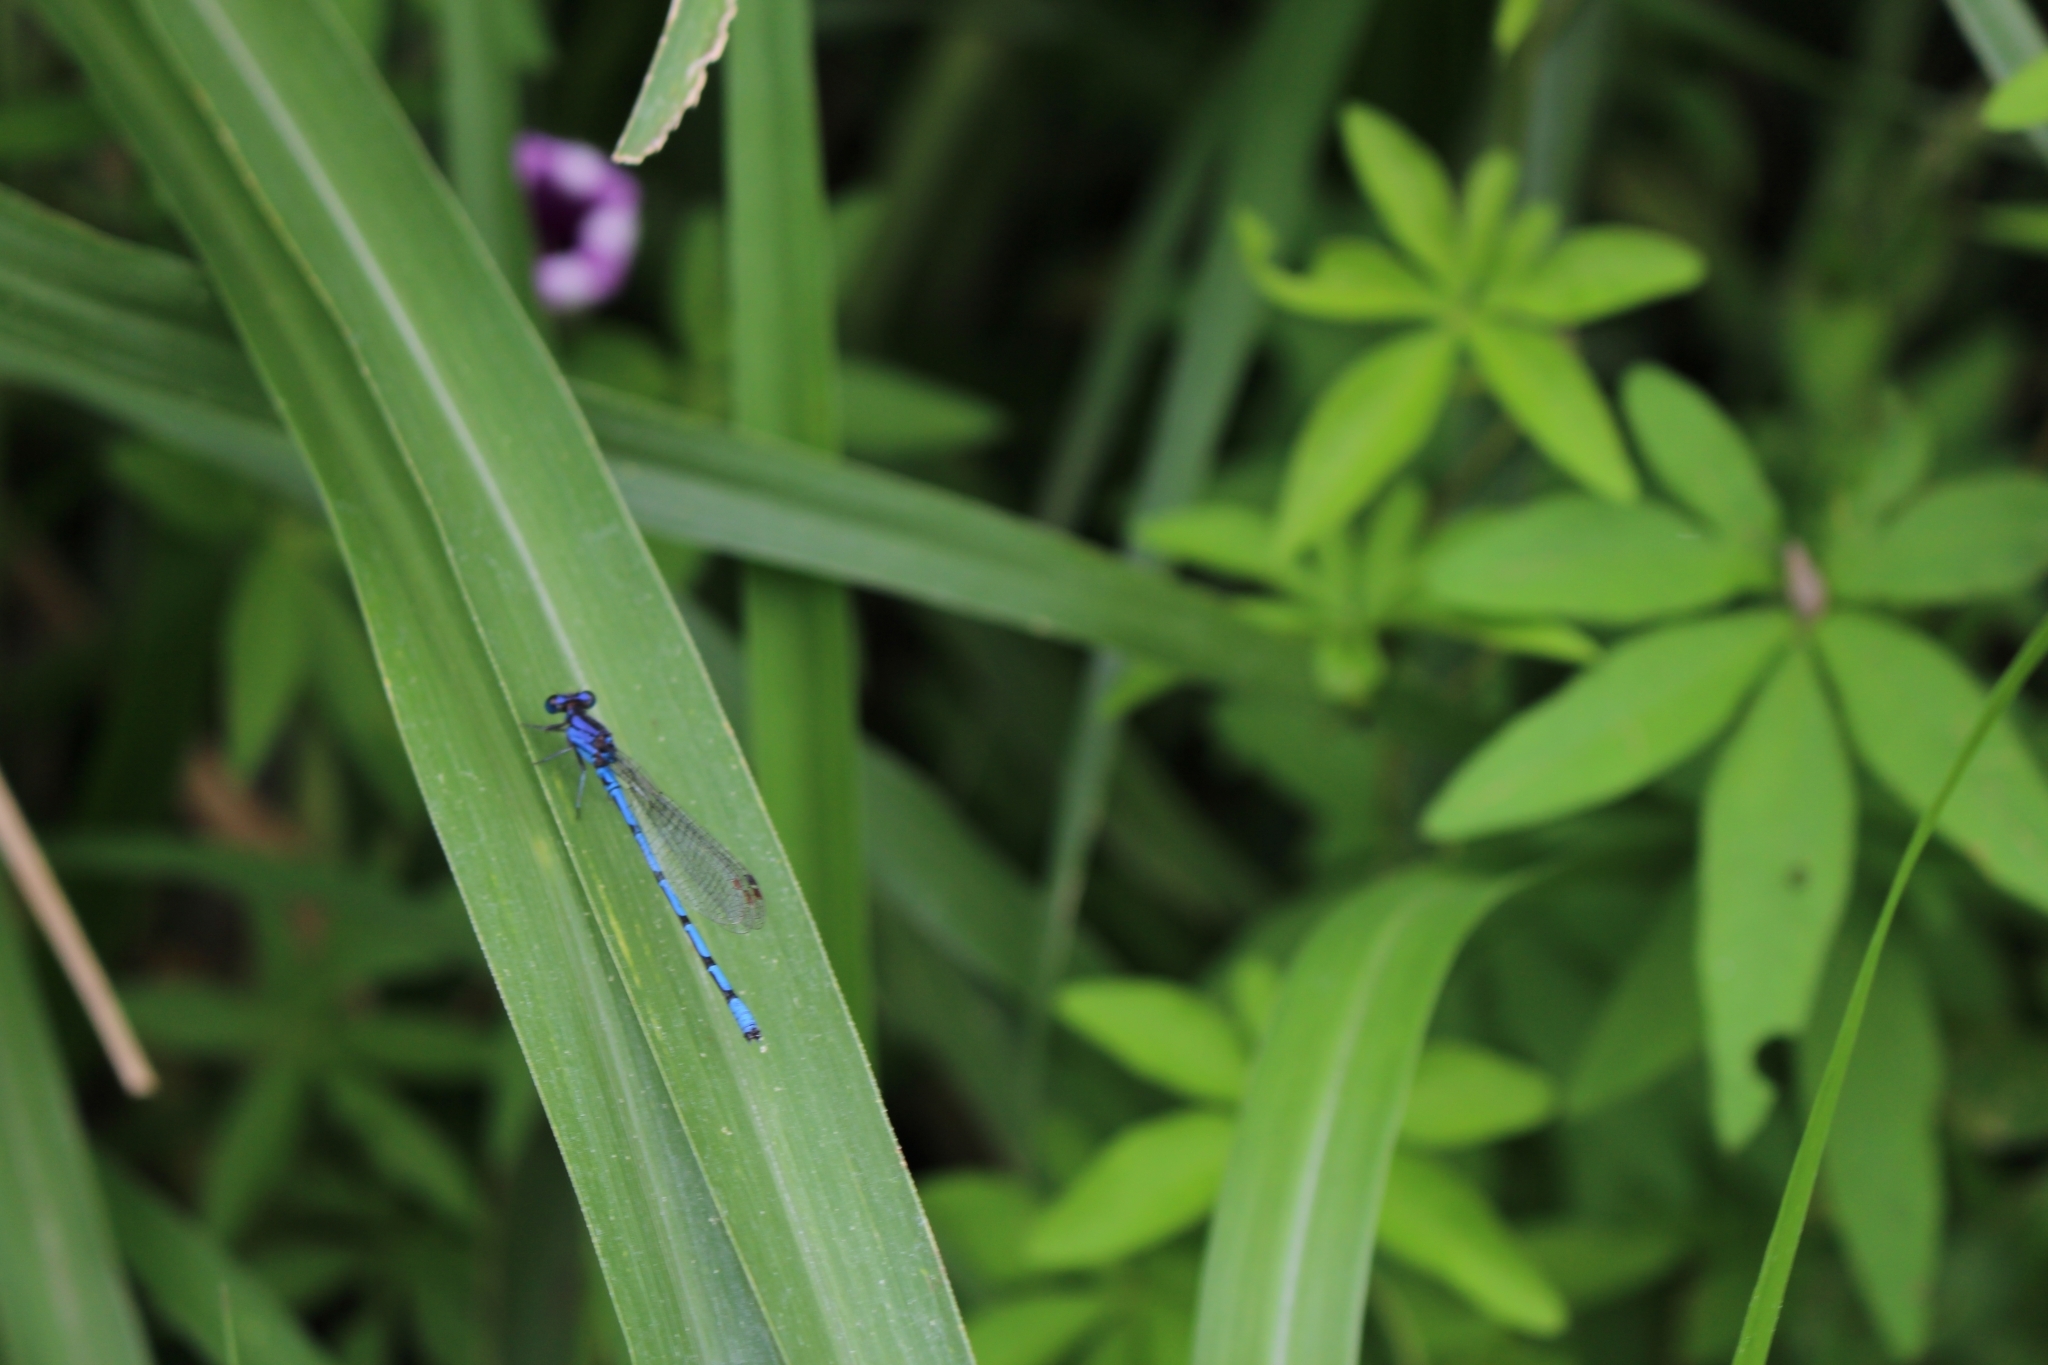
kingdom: Animalia
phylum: Arthropoda
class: Insecta
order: Odonata
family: Coenagrionidae
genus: Argia
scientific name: Argia elongata
